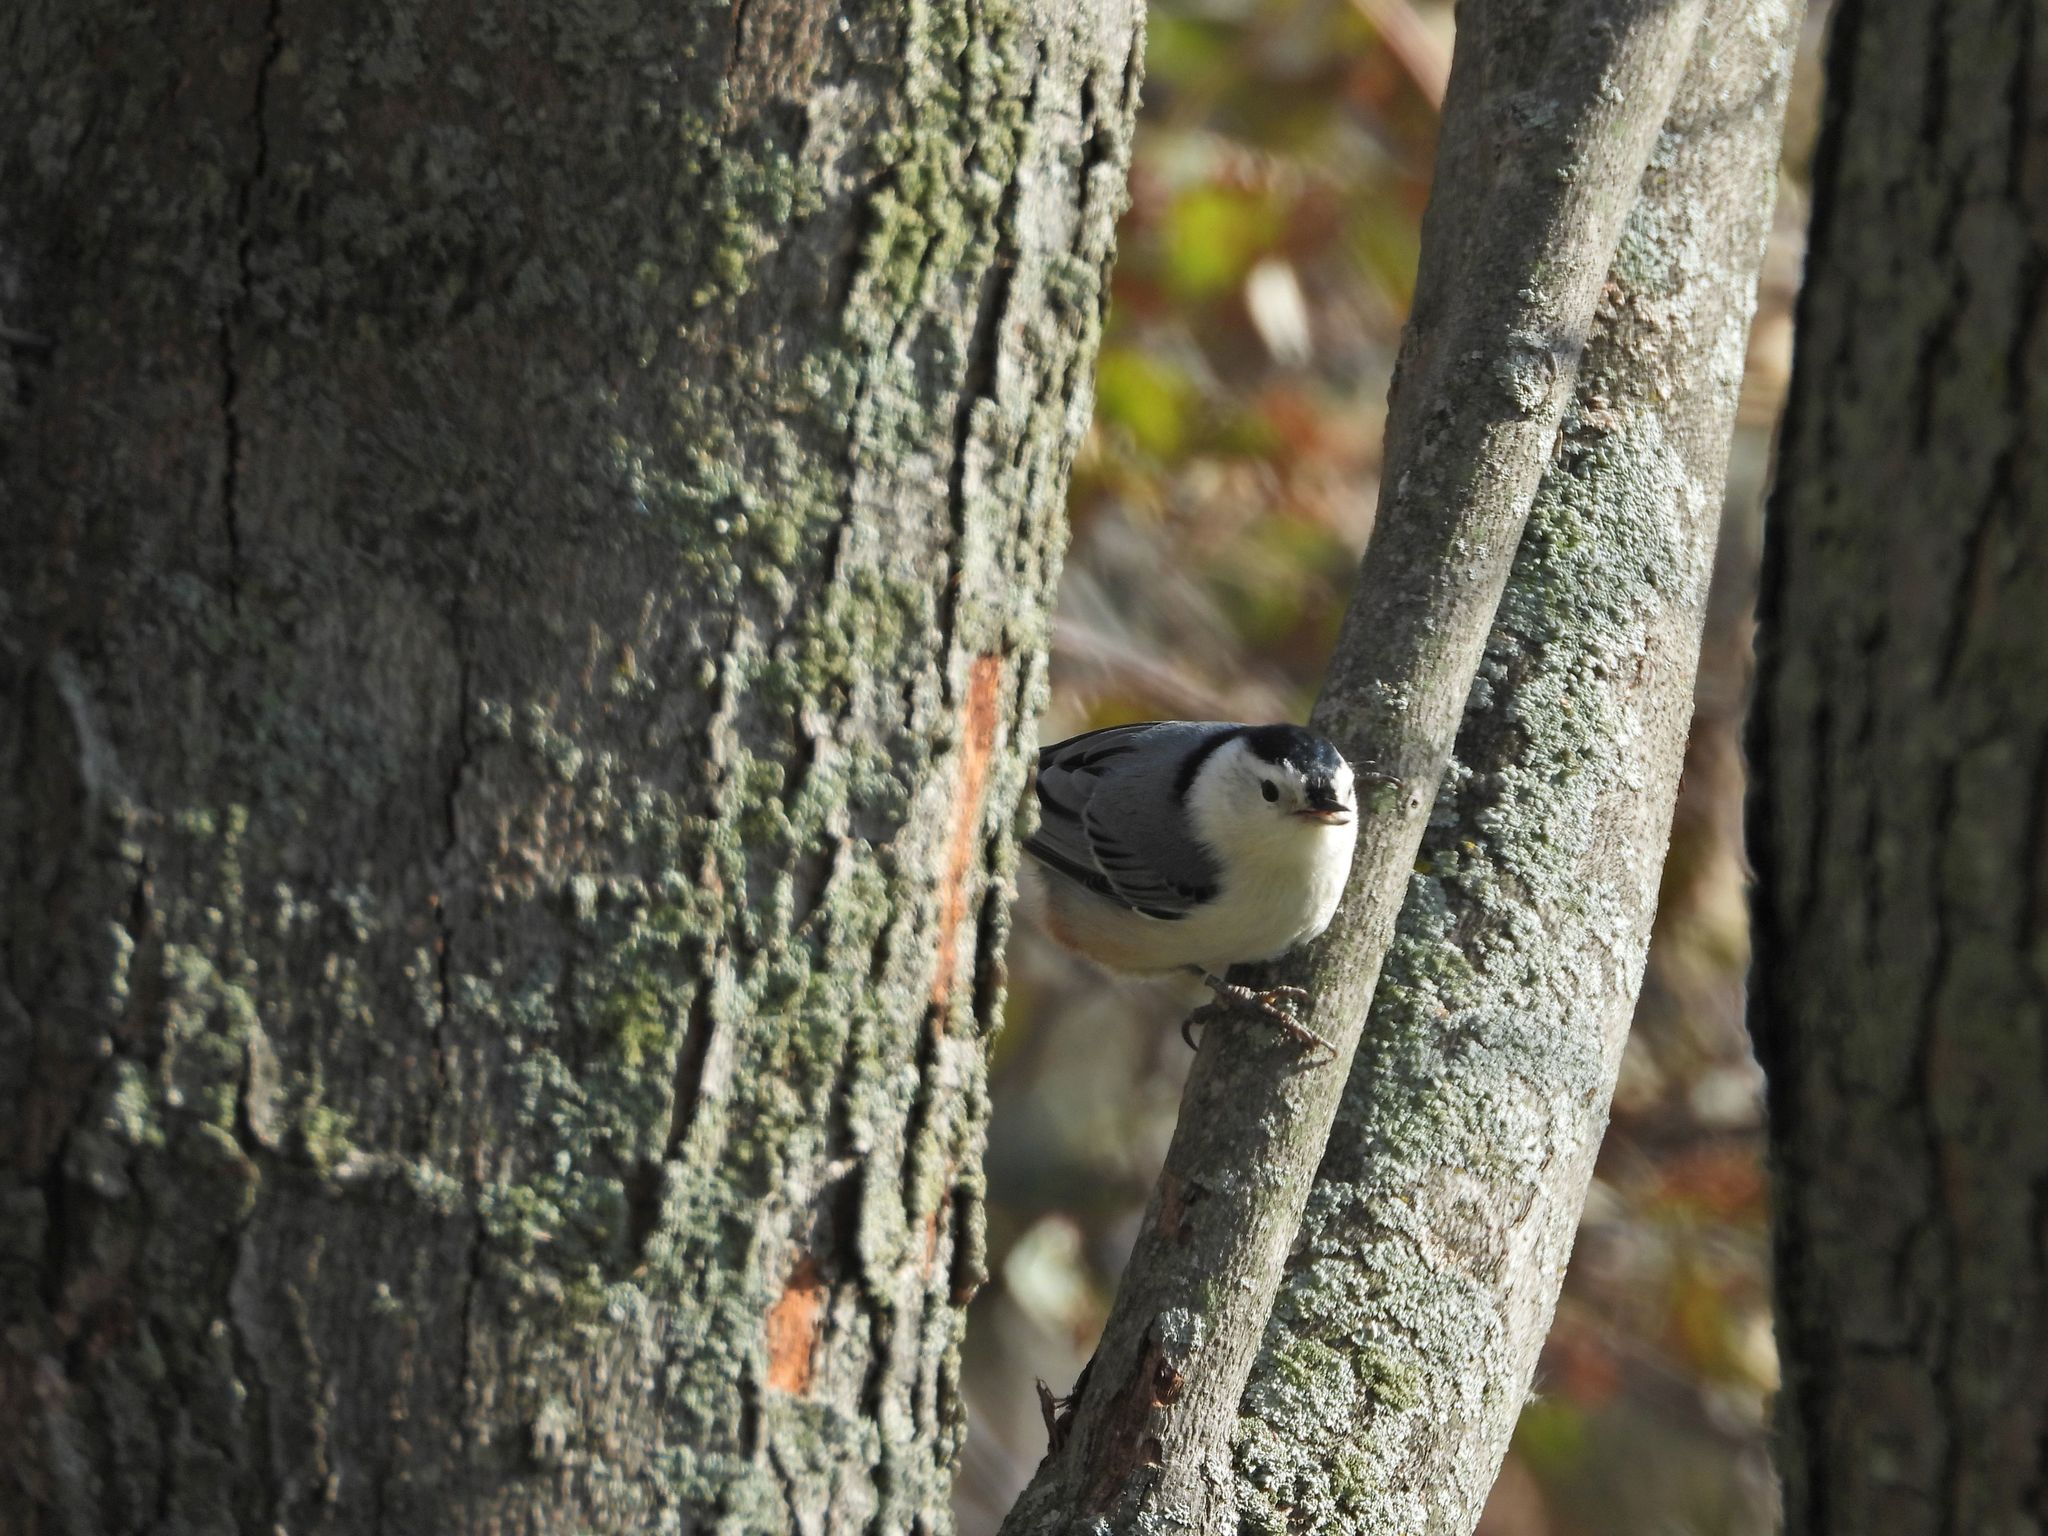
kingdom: Animalia
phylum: Chordata
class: Aves
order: Passeriformes
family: Sittidae
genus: Sitta
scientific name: Sitta carolinensis
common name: White-breasted nuthatch
